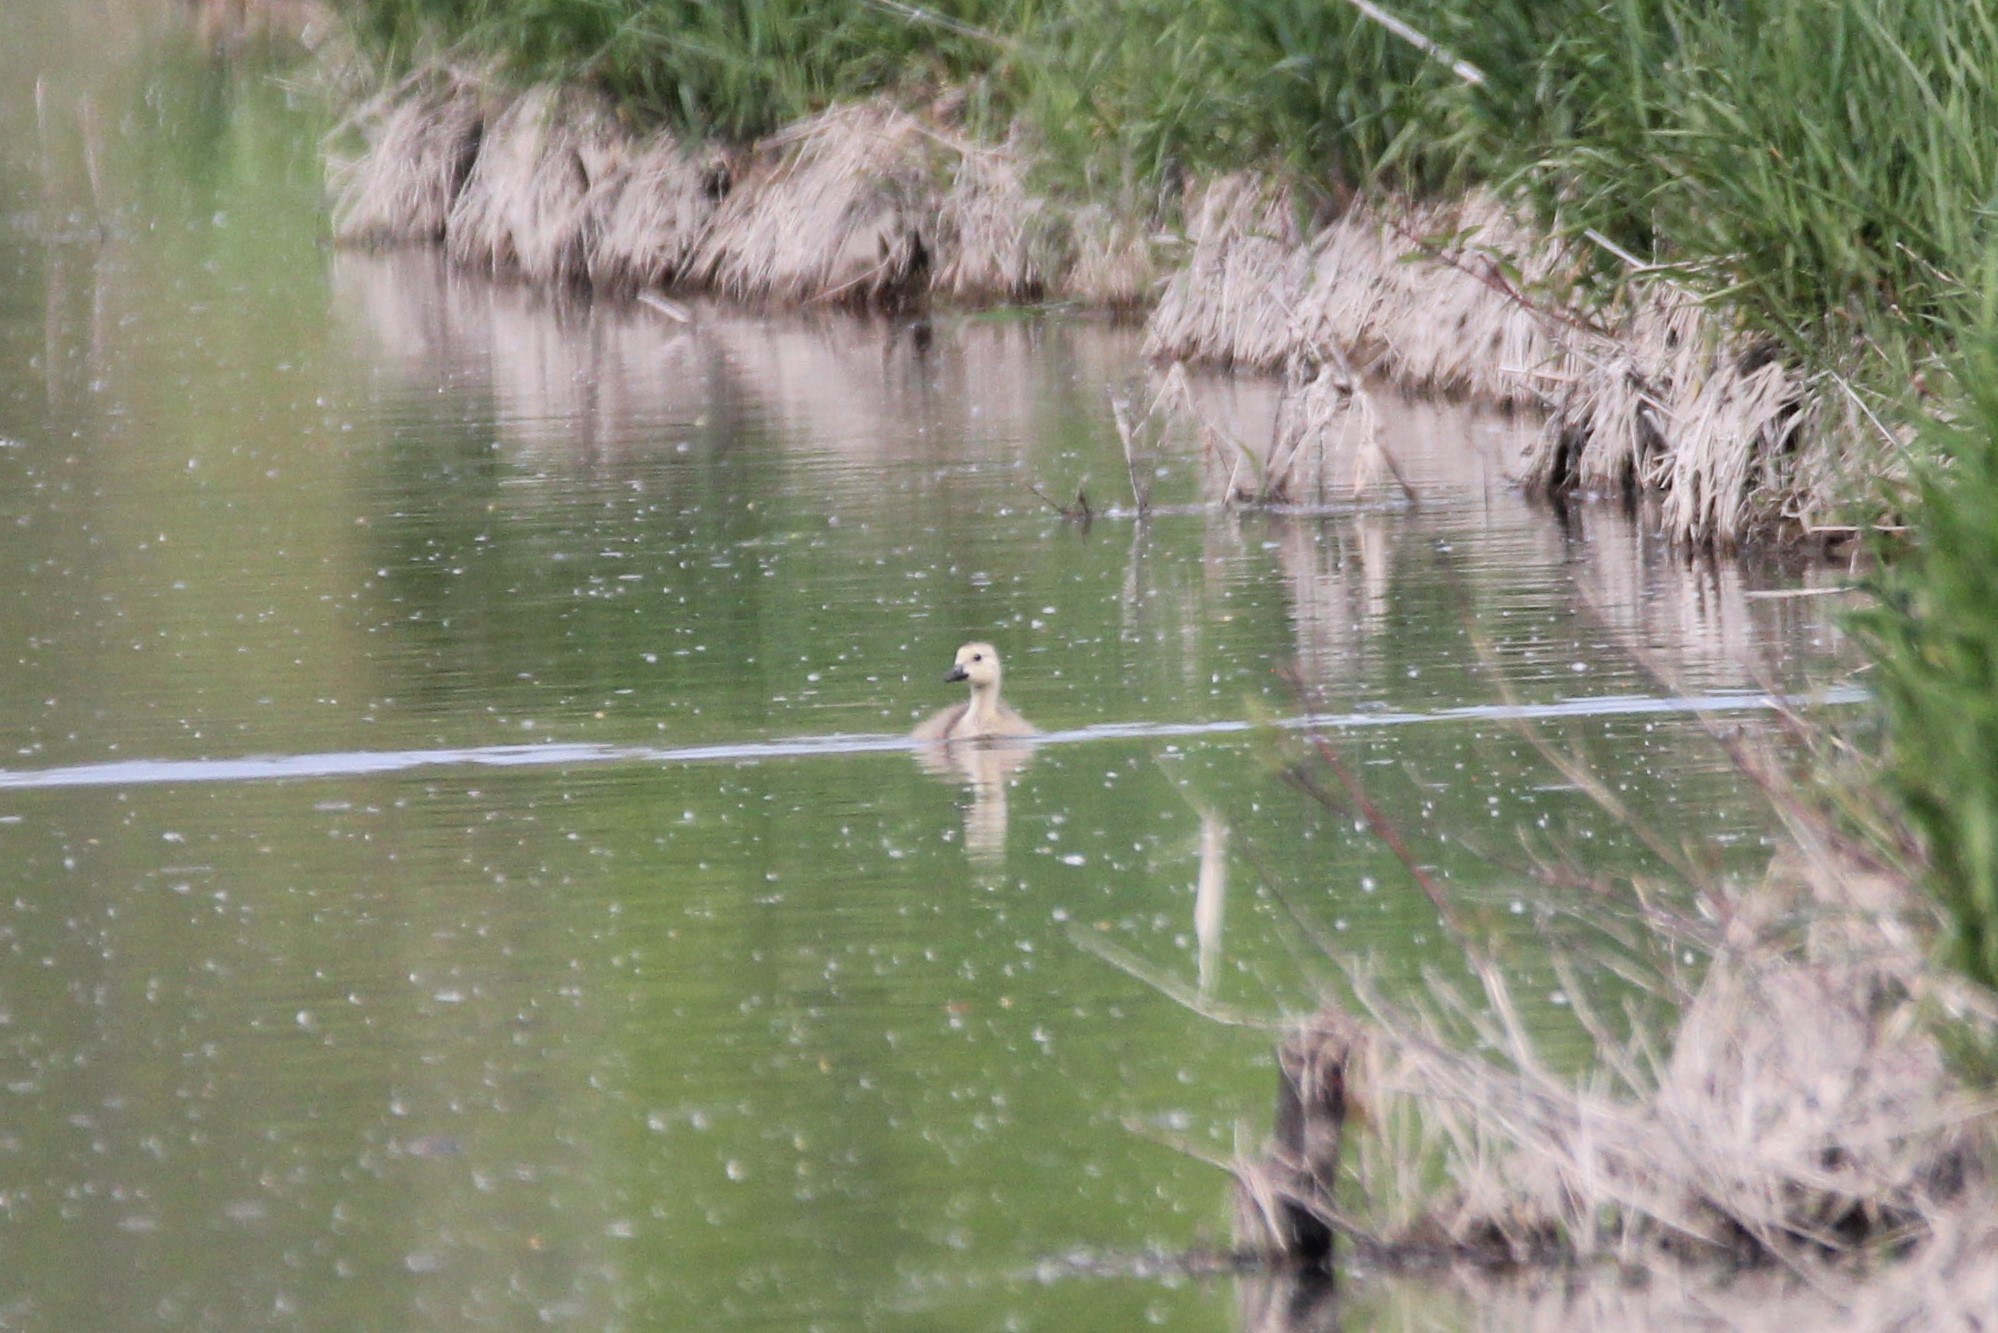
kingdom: Animalia
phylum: Chordata
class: Aves
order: Anseriformes
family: Anatidae
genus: Branta
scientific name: Branta canadensis
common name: Canada goose
